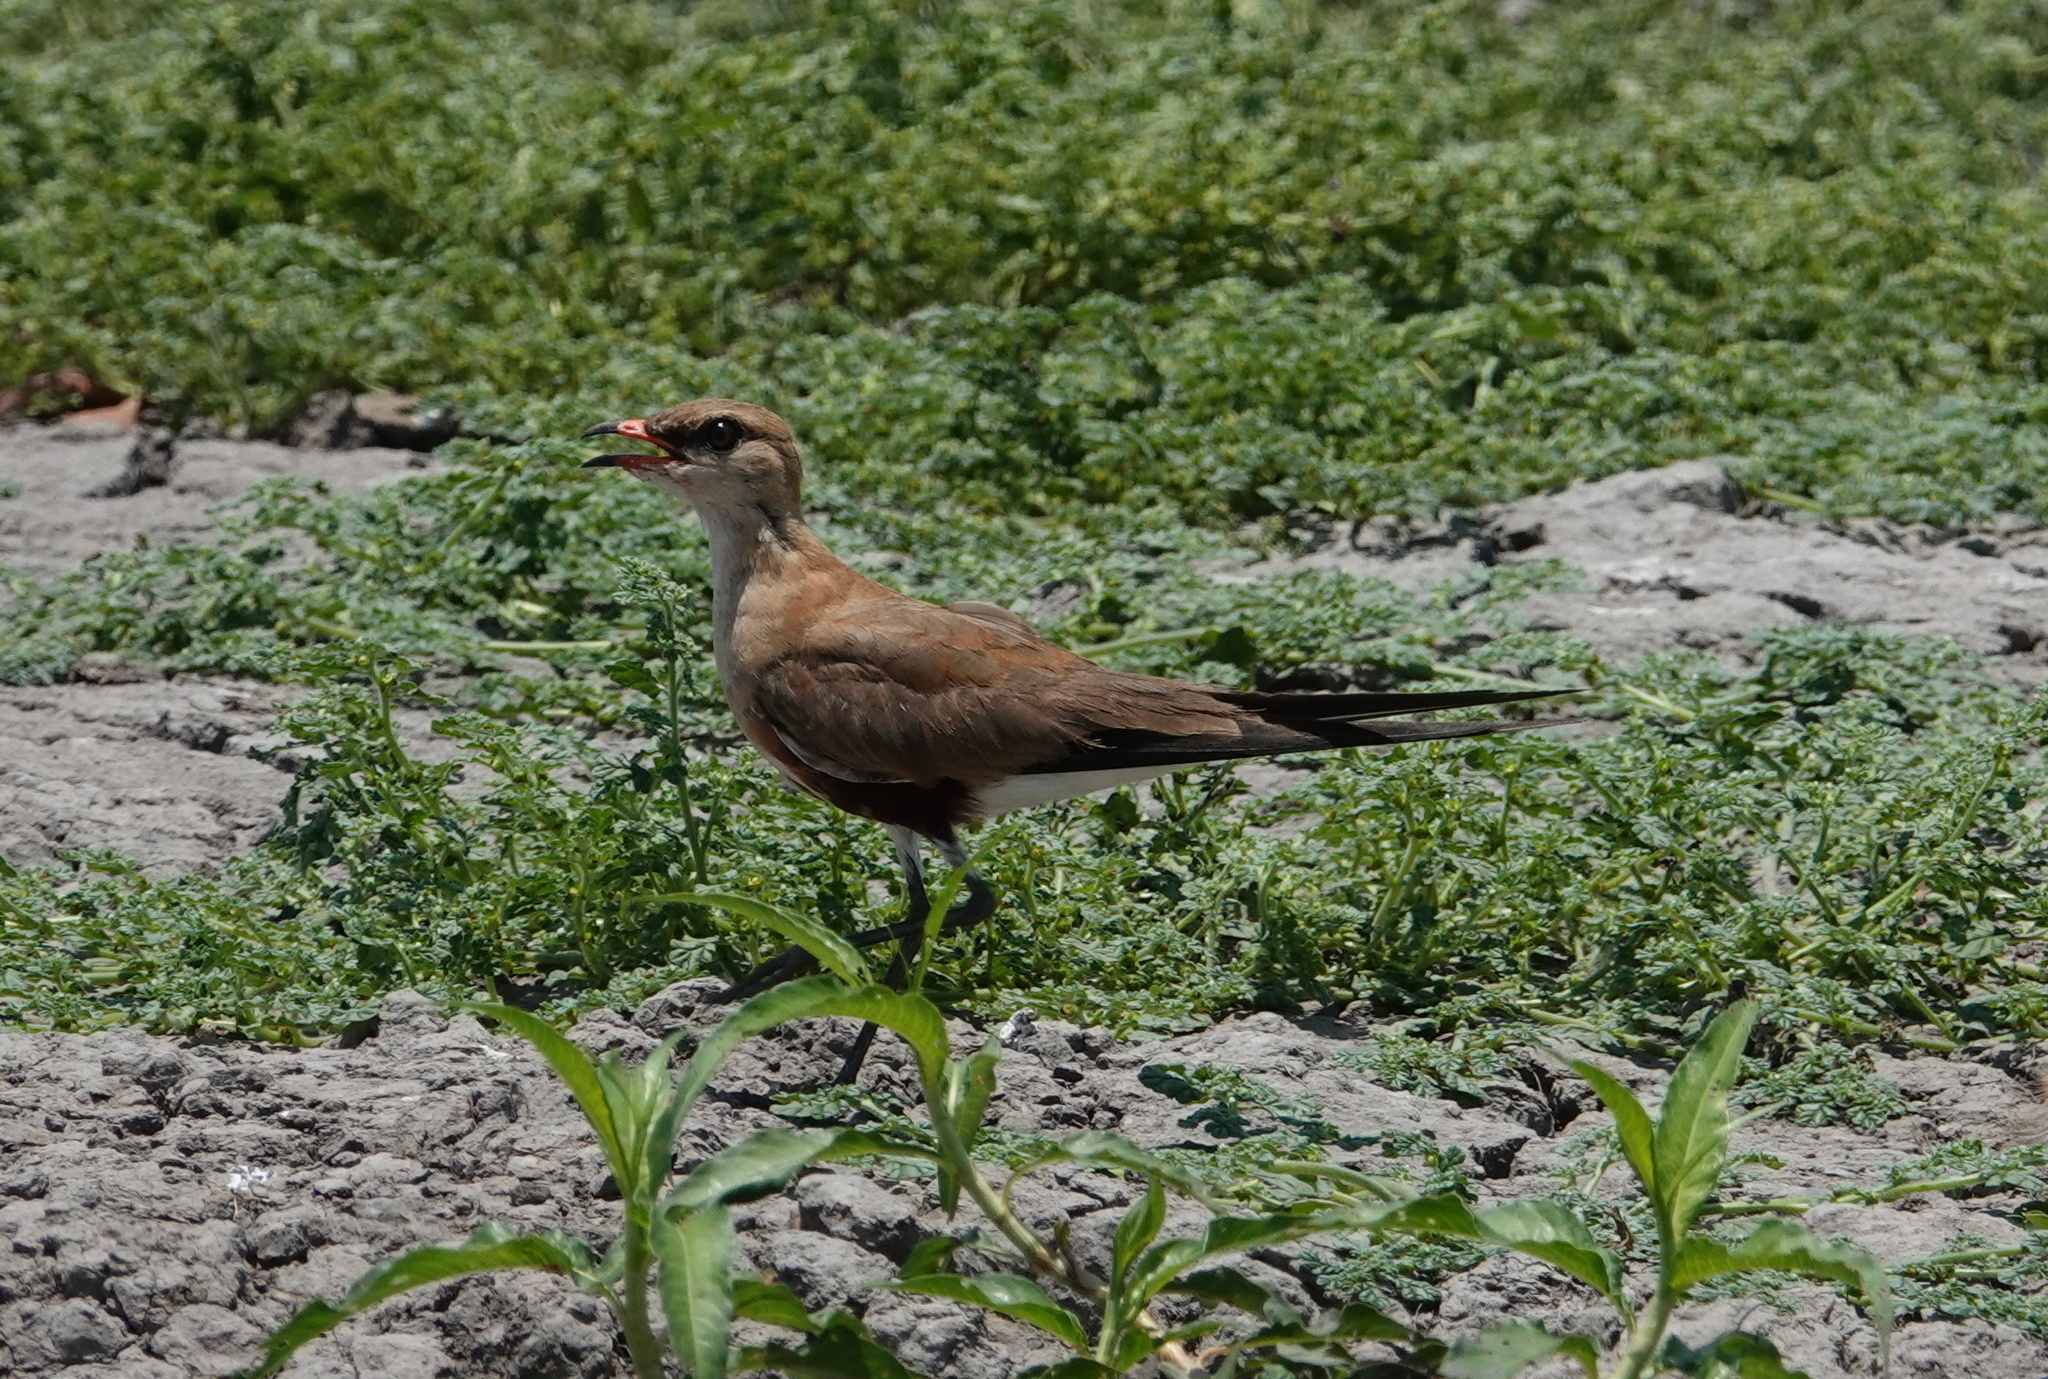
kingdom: Animalia
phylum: Chordata
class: Aves
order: Charadriiformes
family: Glareolidae
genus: Stiltia
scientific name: Stiltia isabella
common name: Australian pratincole
